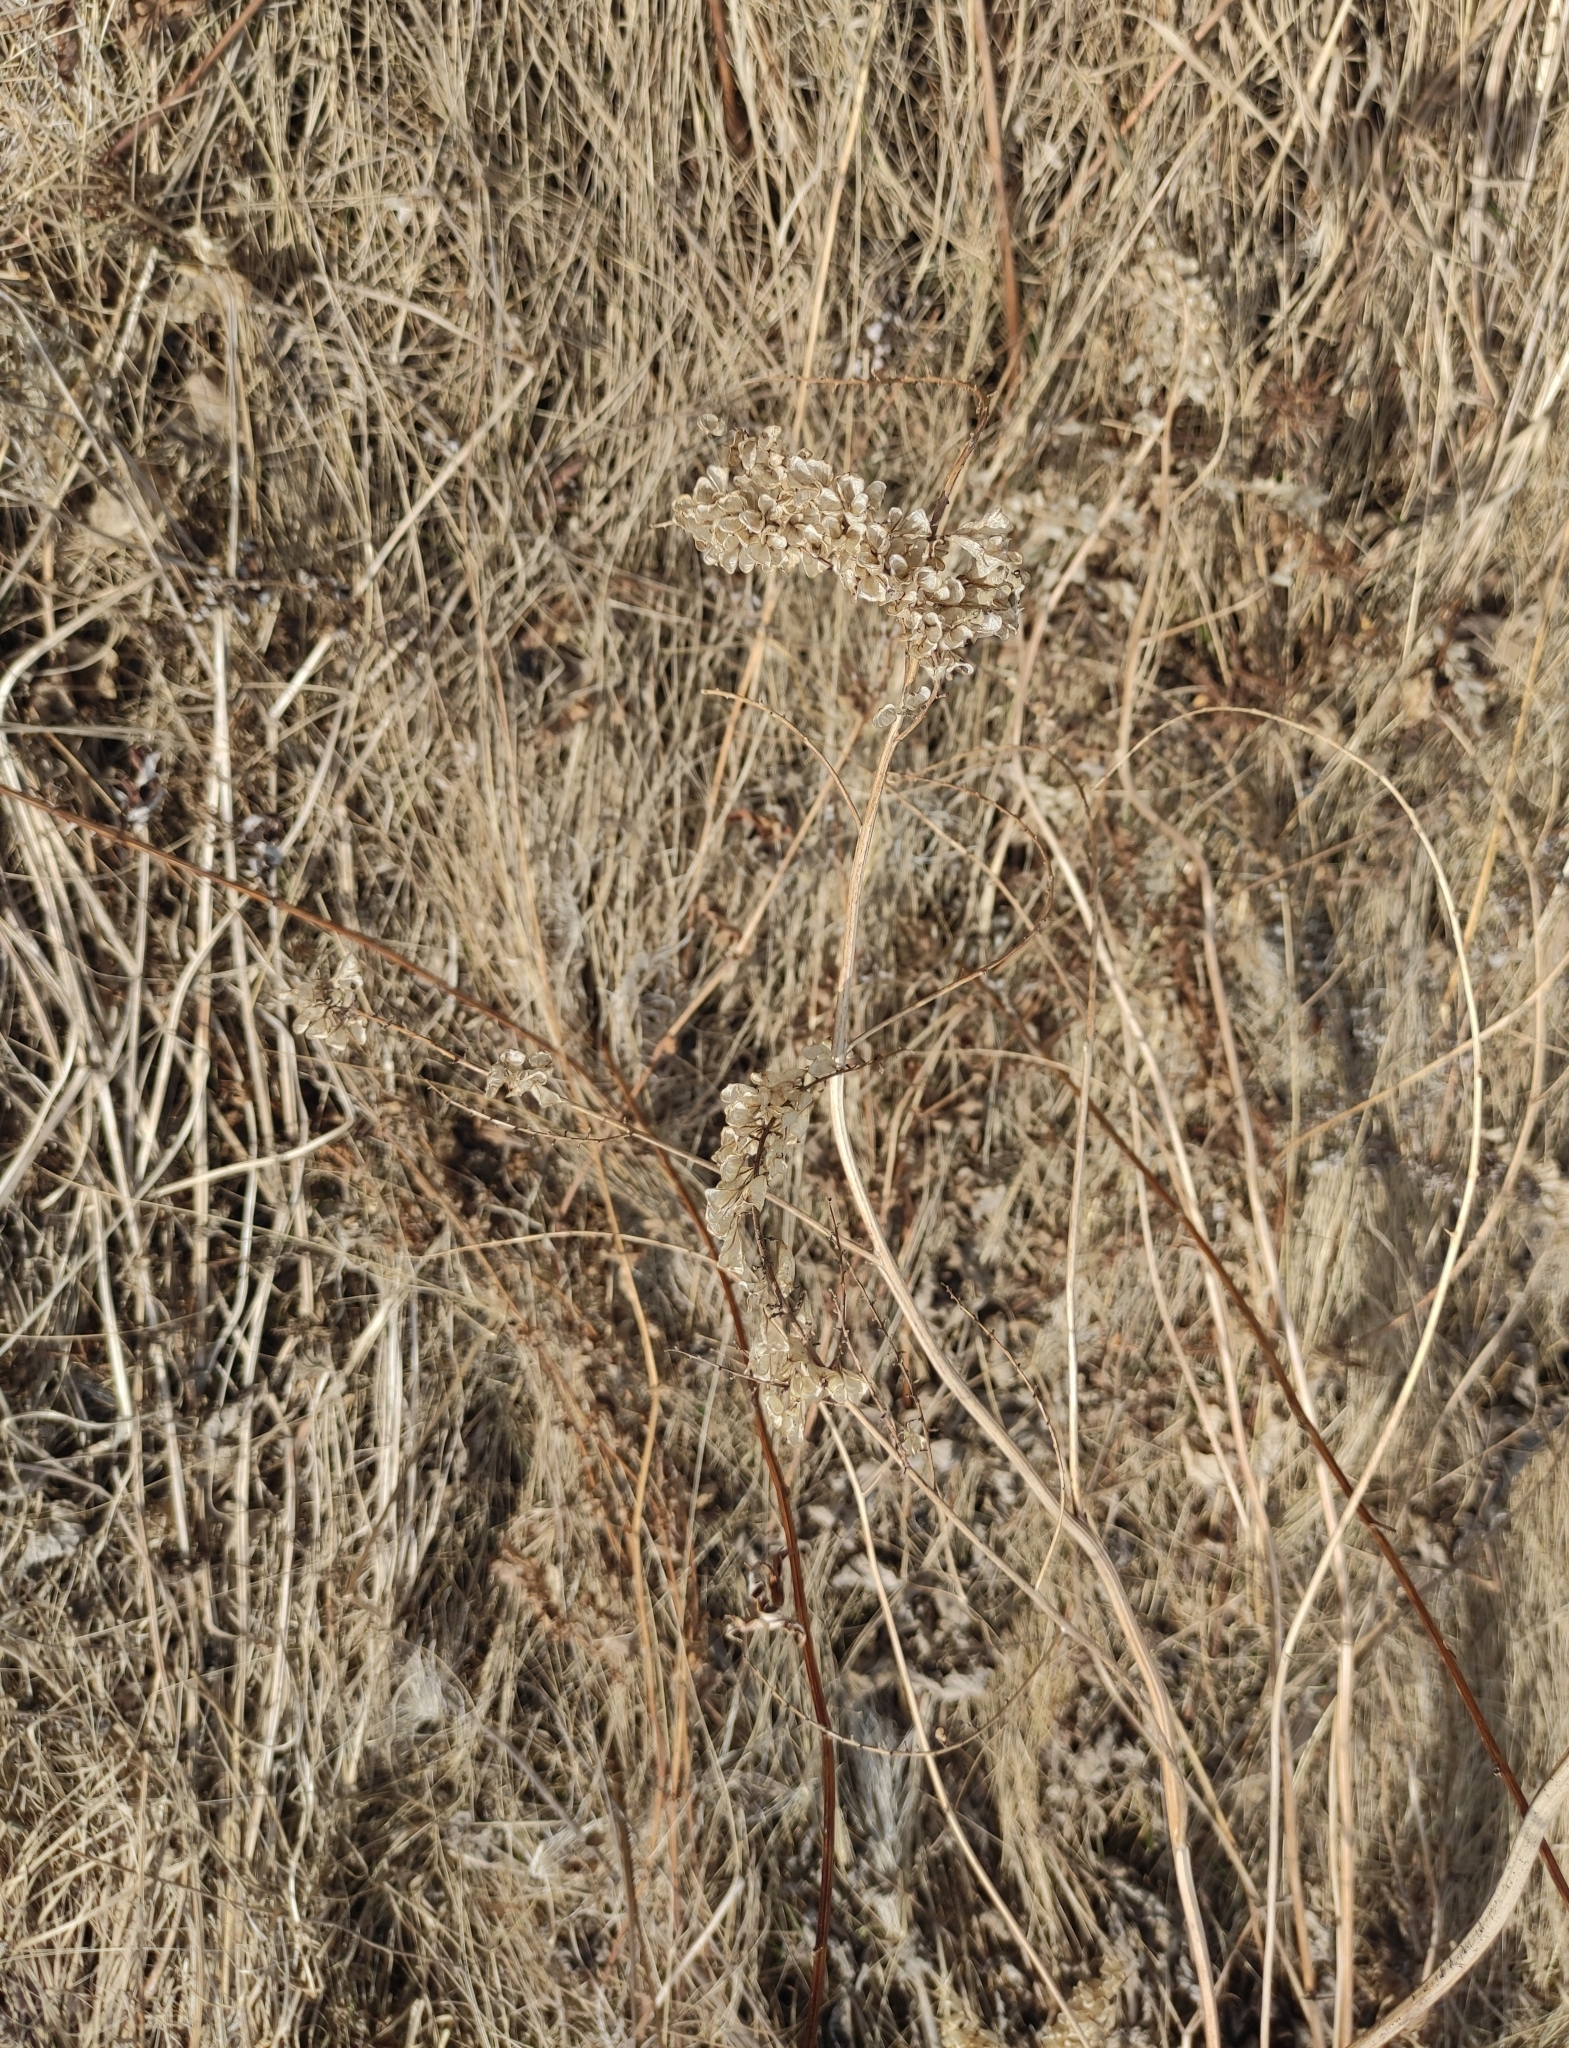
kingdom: Plantae
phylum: Tracheophyta
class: Magnoliopsida
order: Ranunculales
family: Ranunculaceae
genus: Actaea
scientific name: Actaea cimicifuga
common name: Chinese cimicifuga
